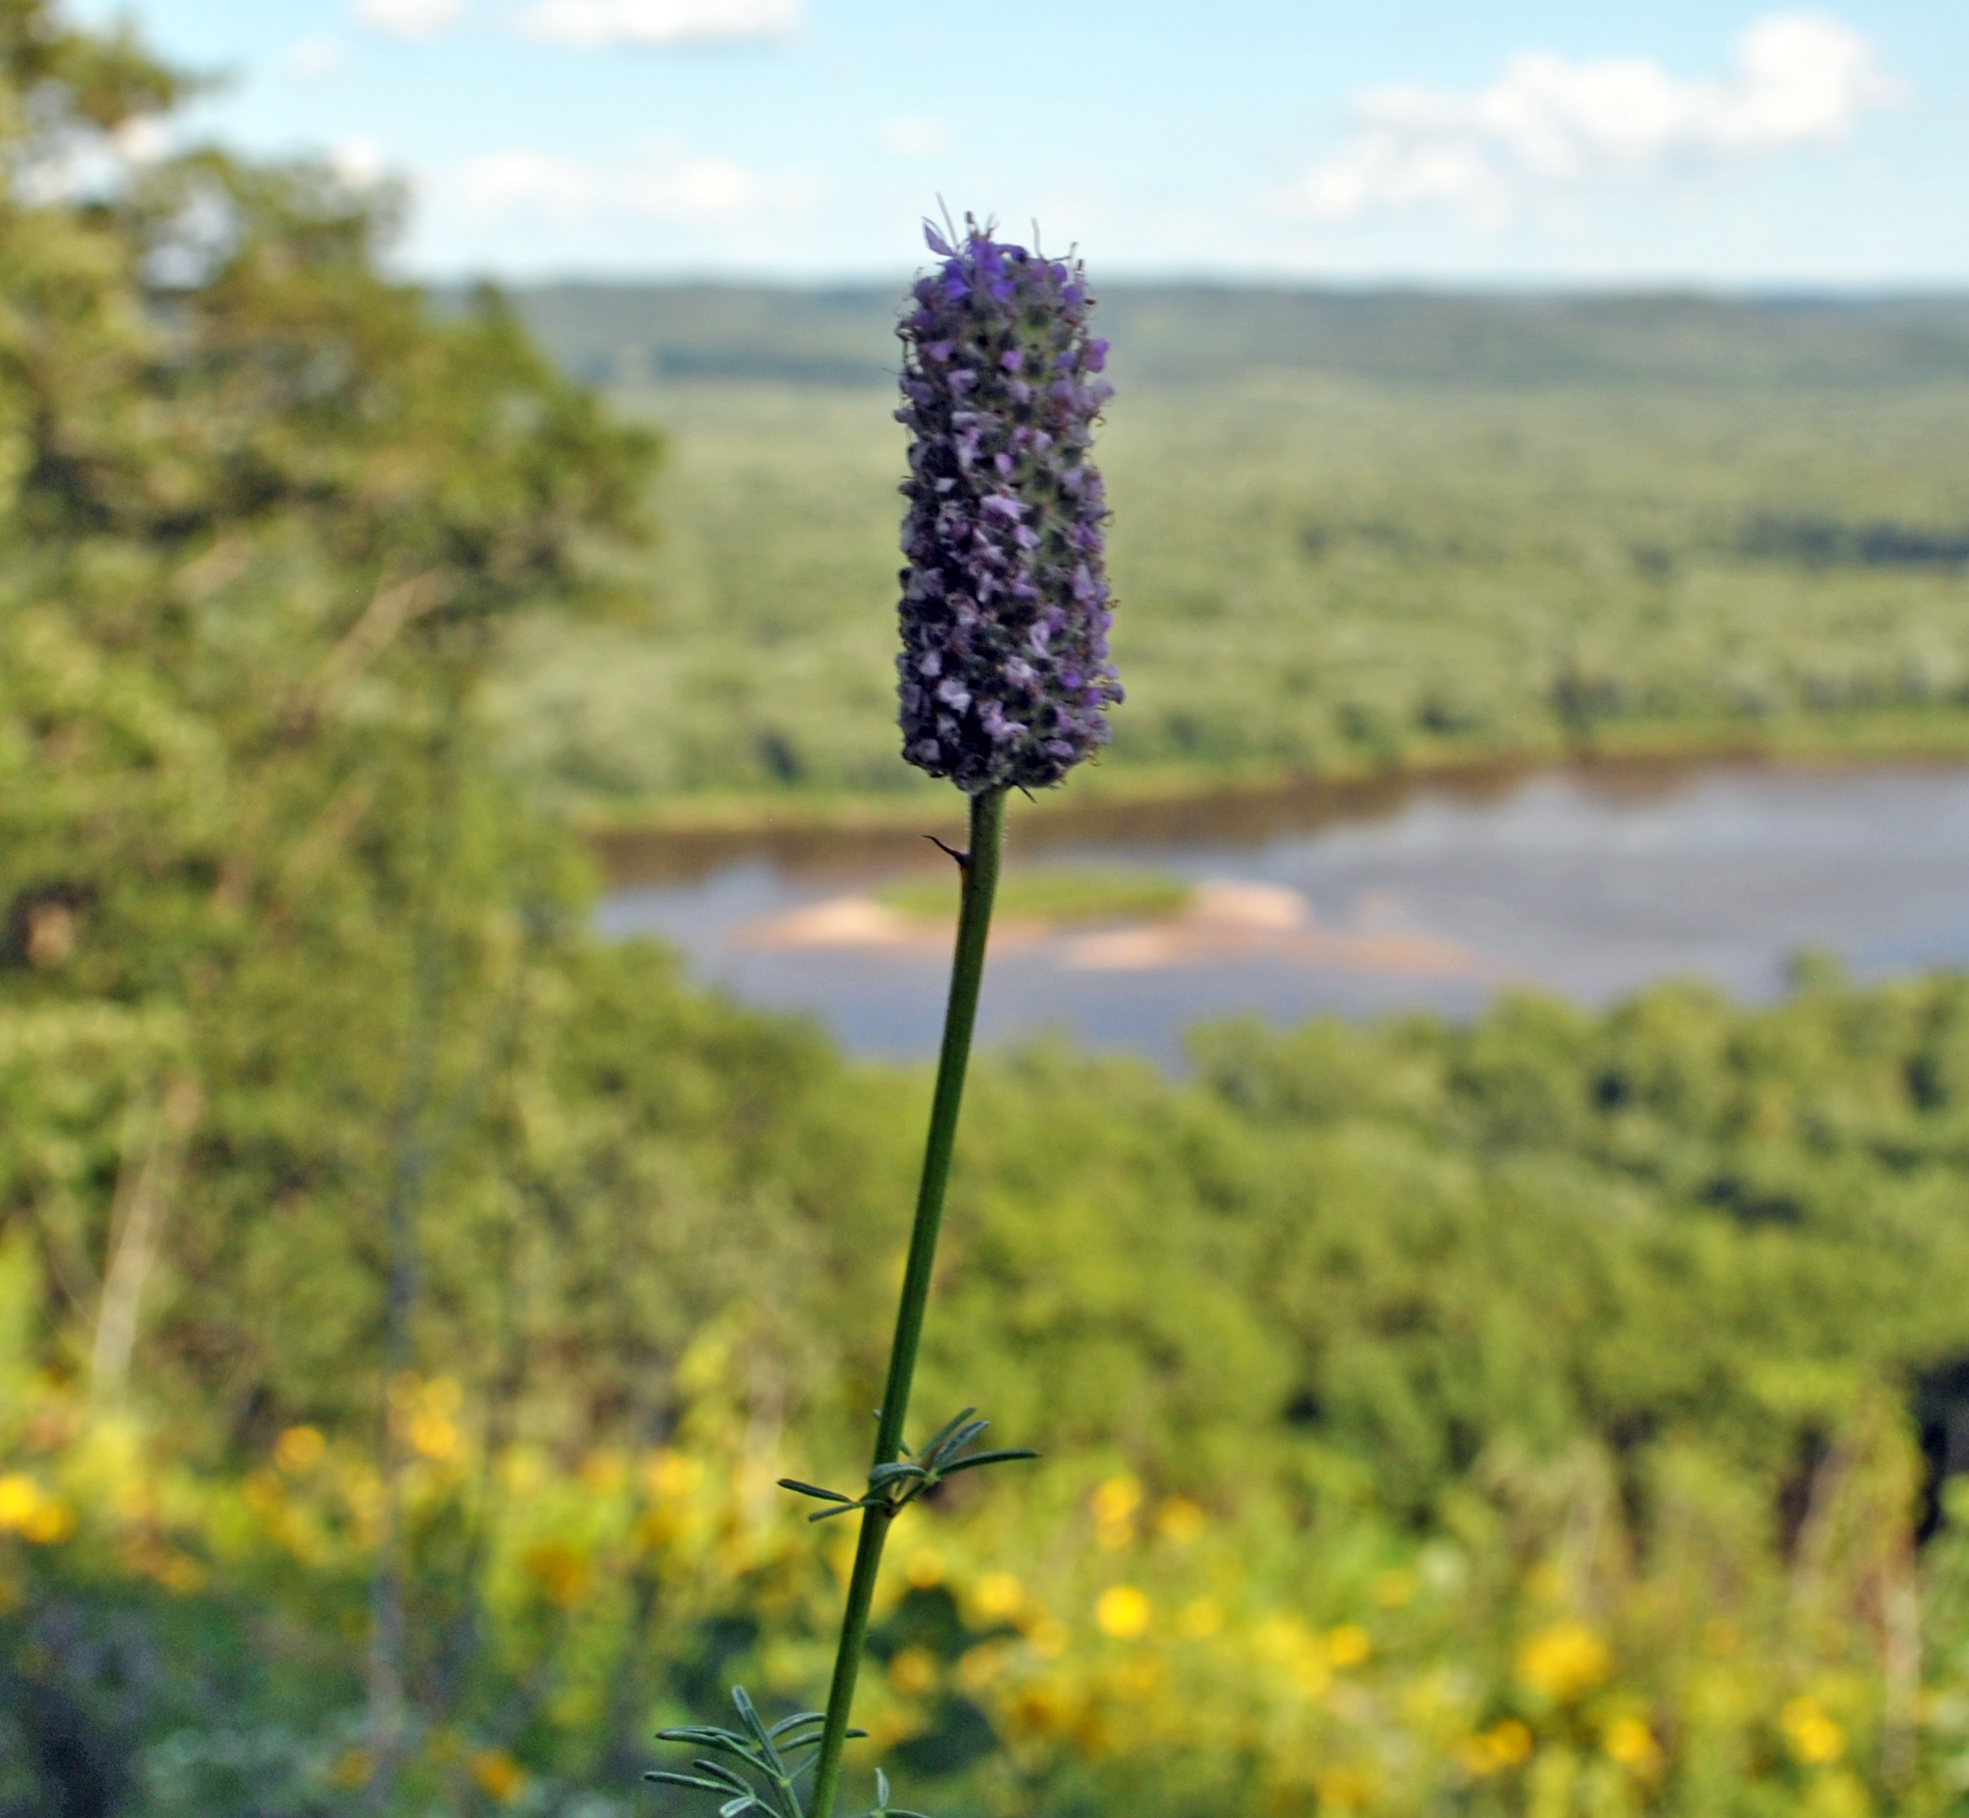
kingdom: Plantae
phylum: Tracheophyta
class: Magnoliopsida
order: Fabales
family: Fabaceae
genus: Dalea
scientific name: Dalea purpurea
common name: Purple prairie-clover
